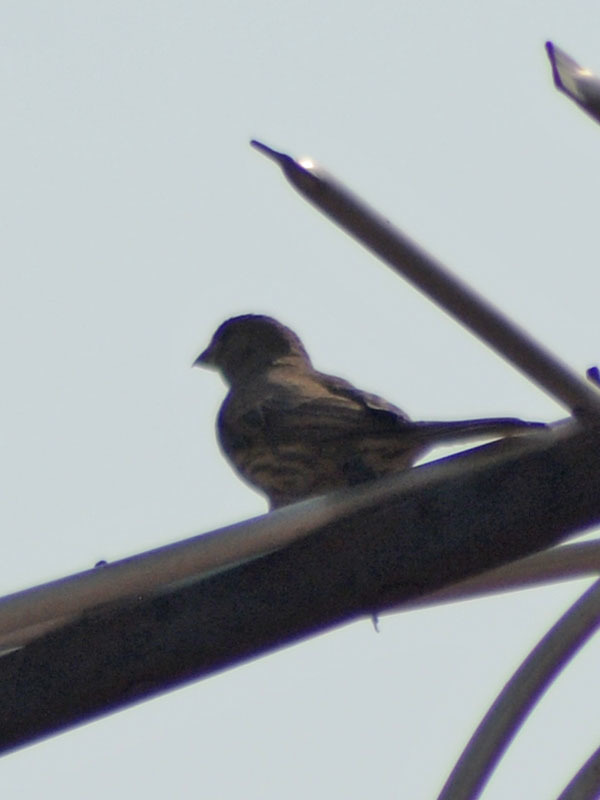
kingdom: Animalia
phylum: Chordata
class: Aves
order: Passeriformes
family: Fringillidae
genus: Haemorhous
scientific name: Haemorhous mexicanus
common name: House finch
